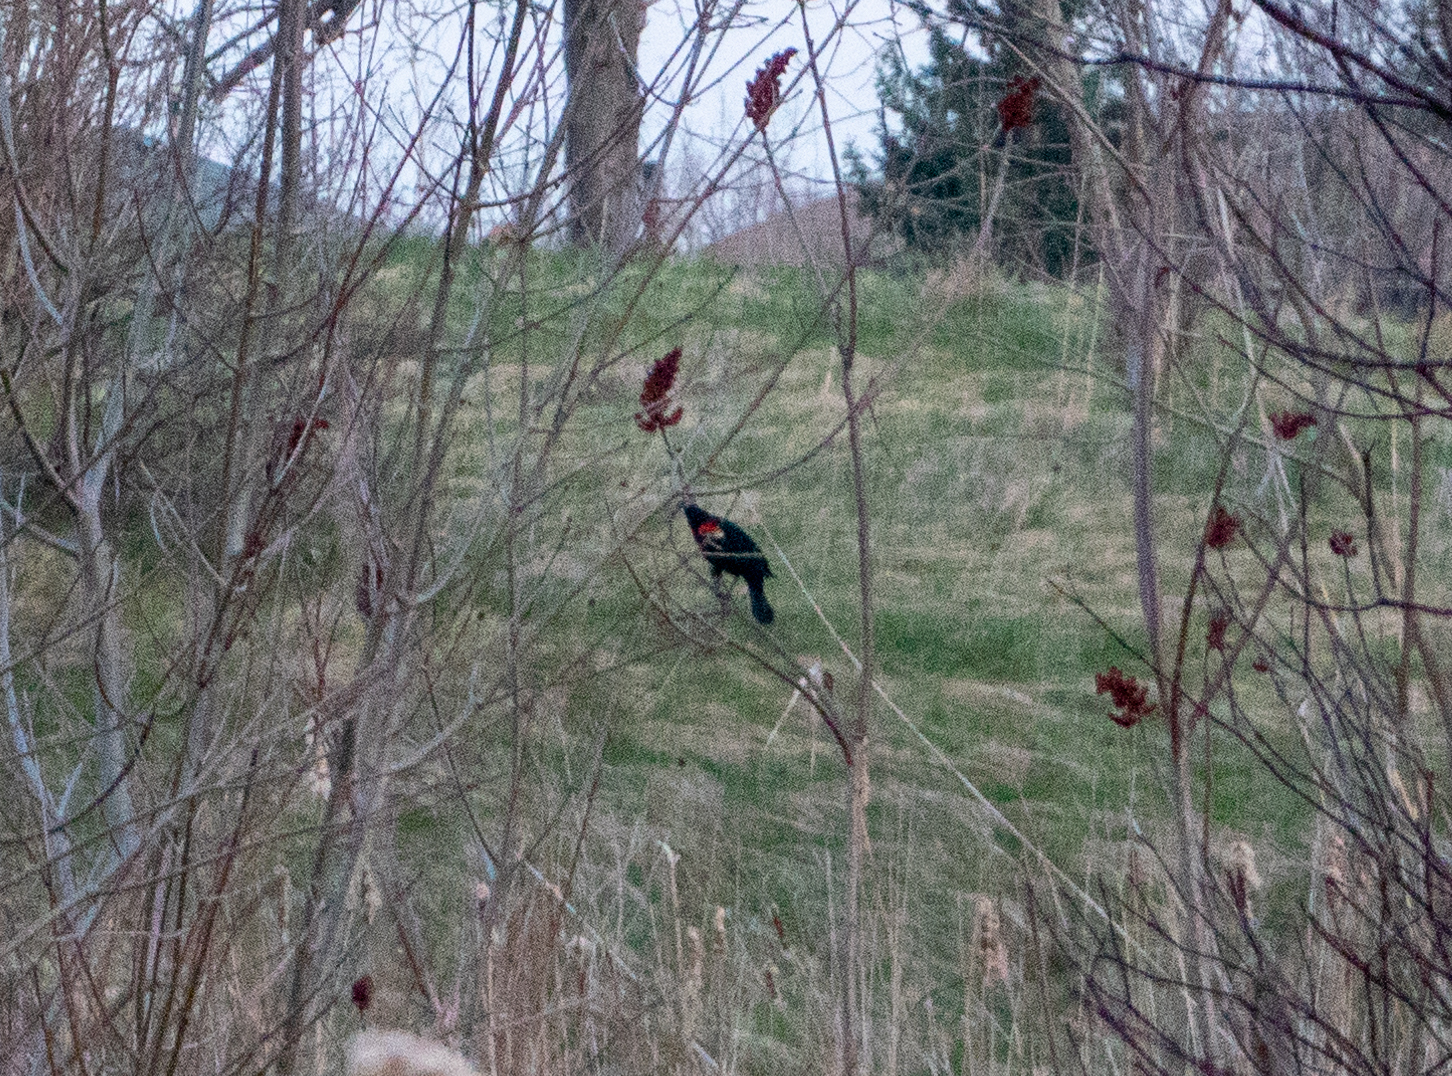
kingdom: Animalia
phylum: Chordata
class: Aves
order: Passeriformes
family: Icteridae
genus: Agelaius
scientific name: Agelaius phoeniceus
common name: Red-winged blackbird
